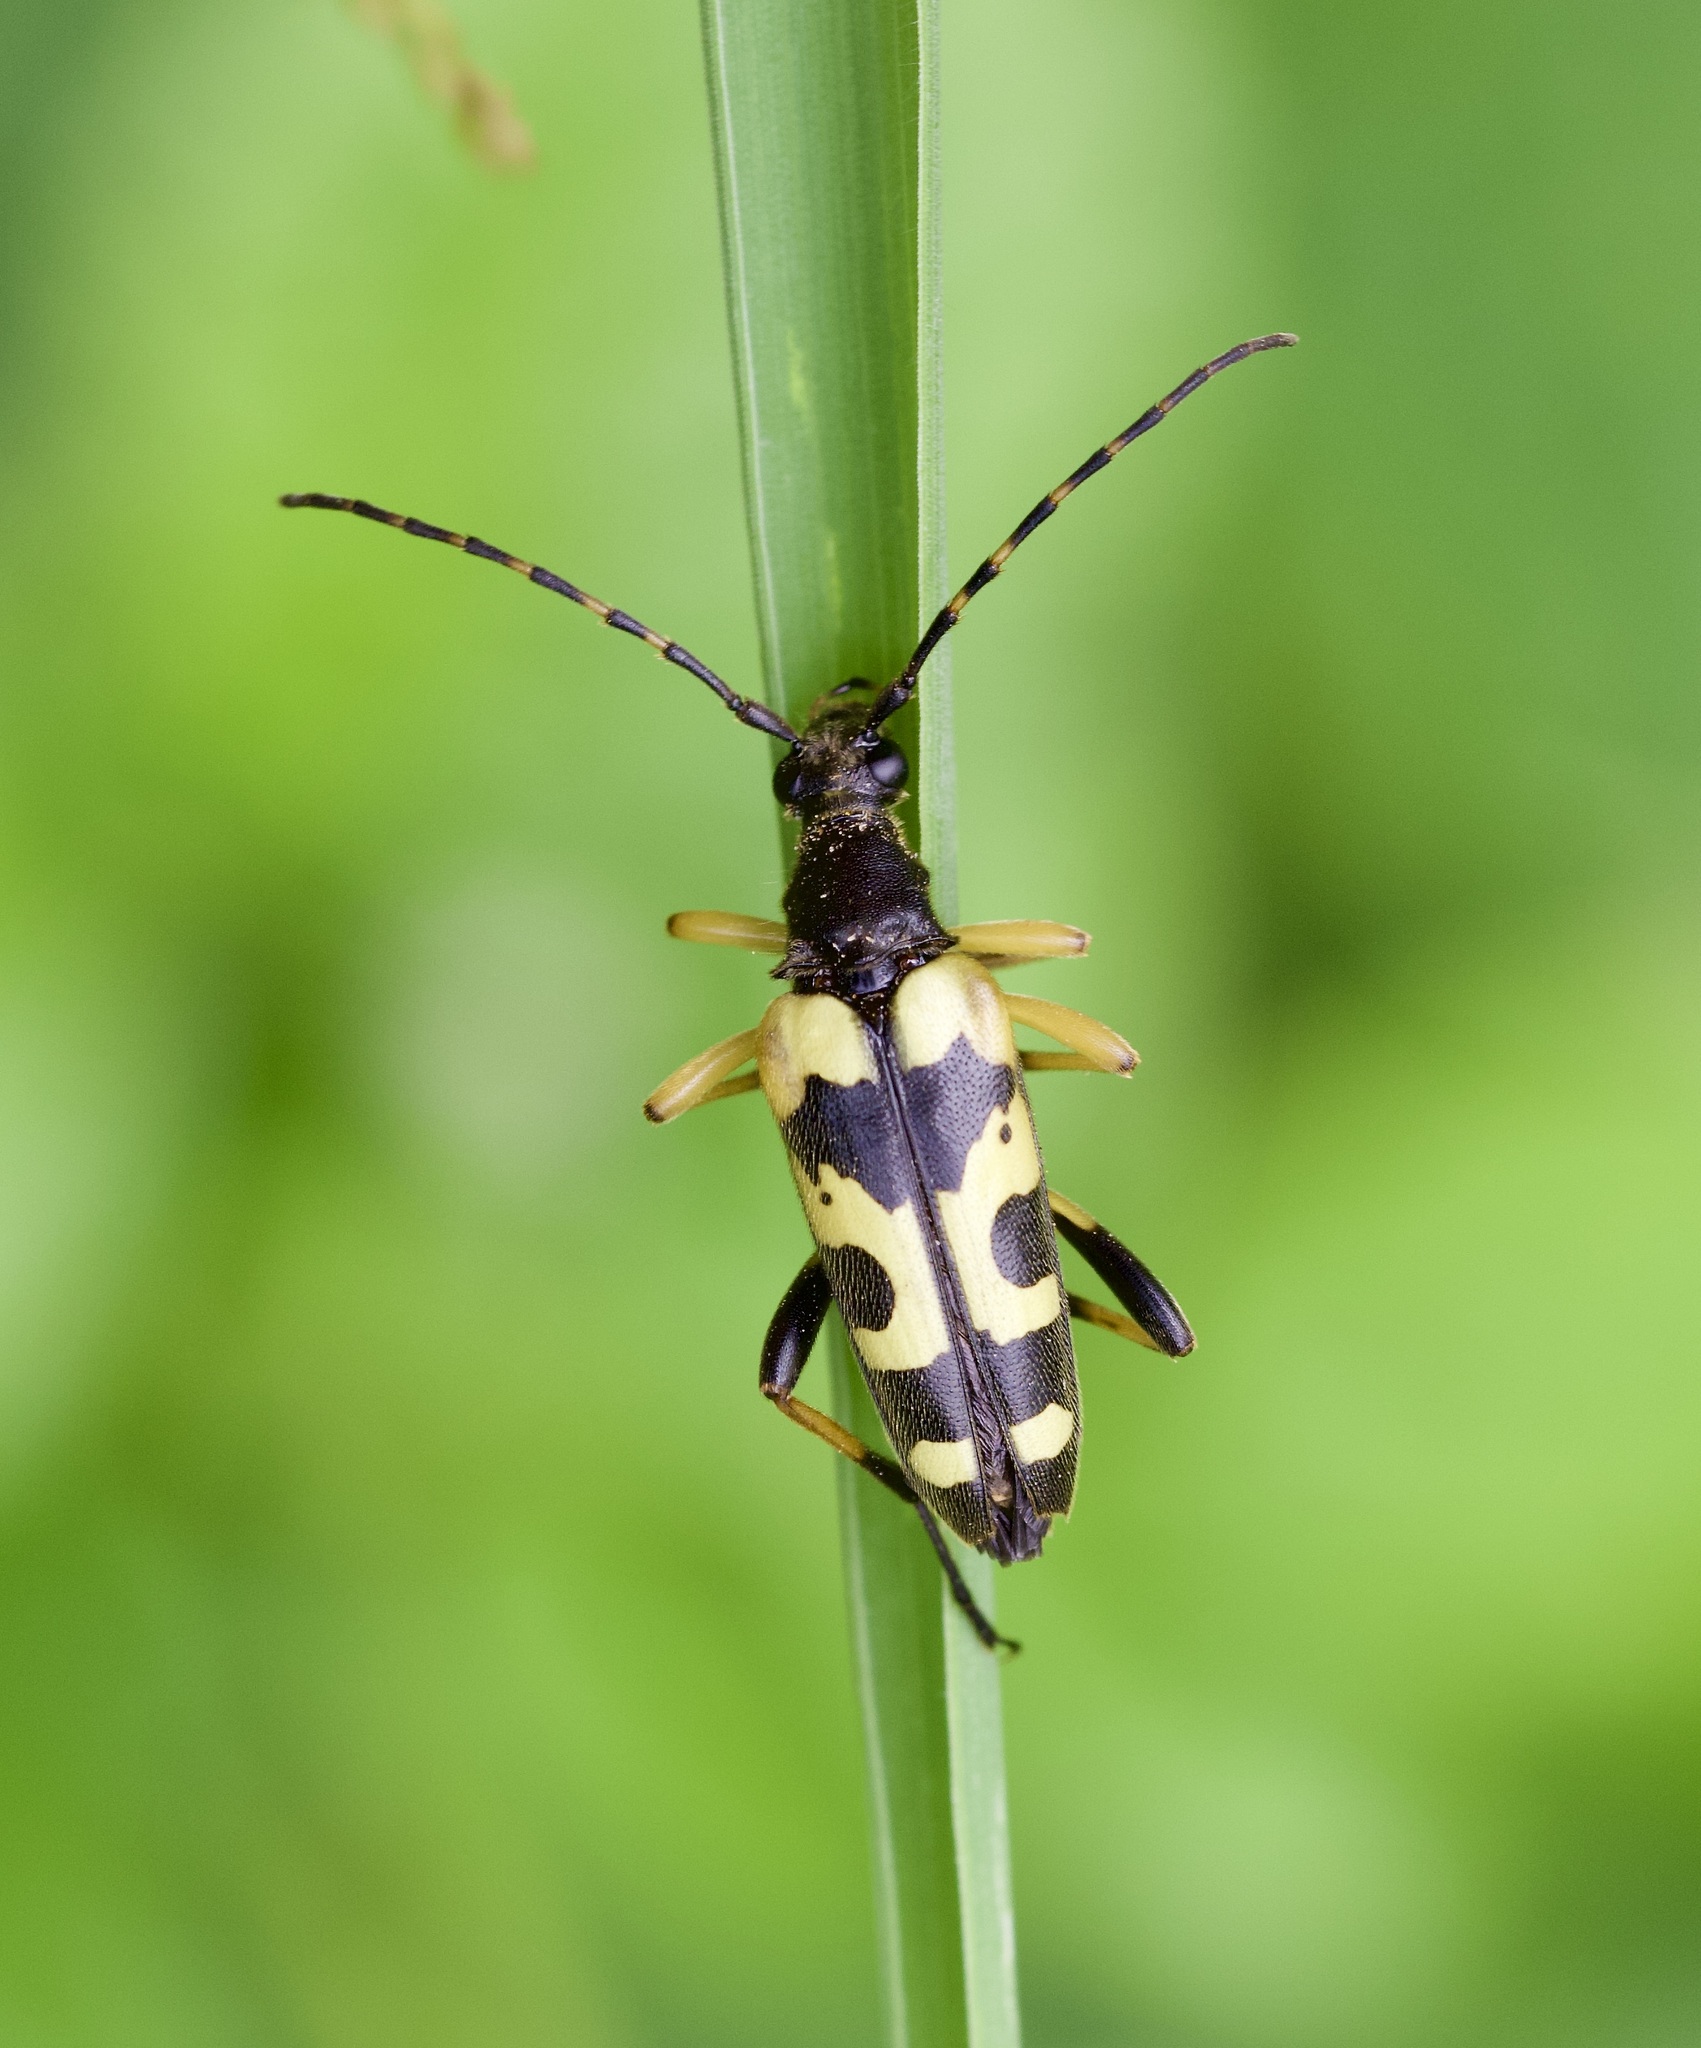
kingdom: Animalia
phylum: Arthropoda
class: Insecta
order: Coleoptera
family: Cerambycidae
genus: Rutpela
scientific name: Rutpela maculata
